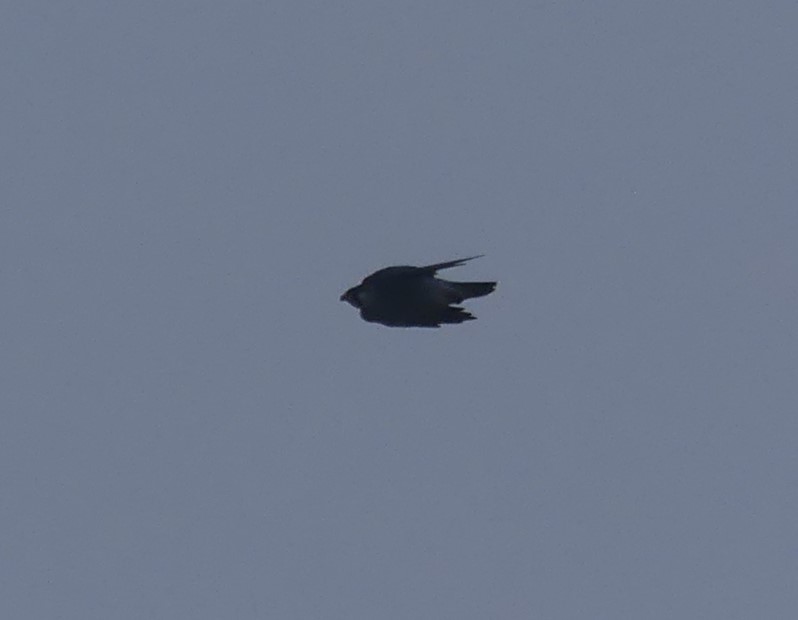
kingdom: Animalia
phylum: Chordata
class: Aves
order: Falconiformes
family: Falconidae
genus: Falco
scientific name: Falco peregrinus
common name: Peregrine falcon
